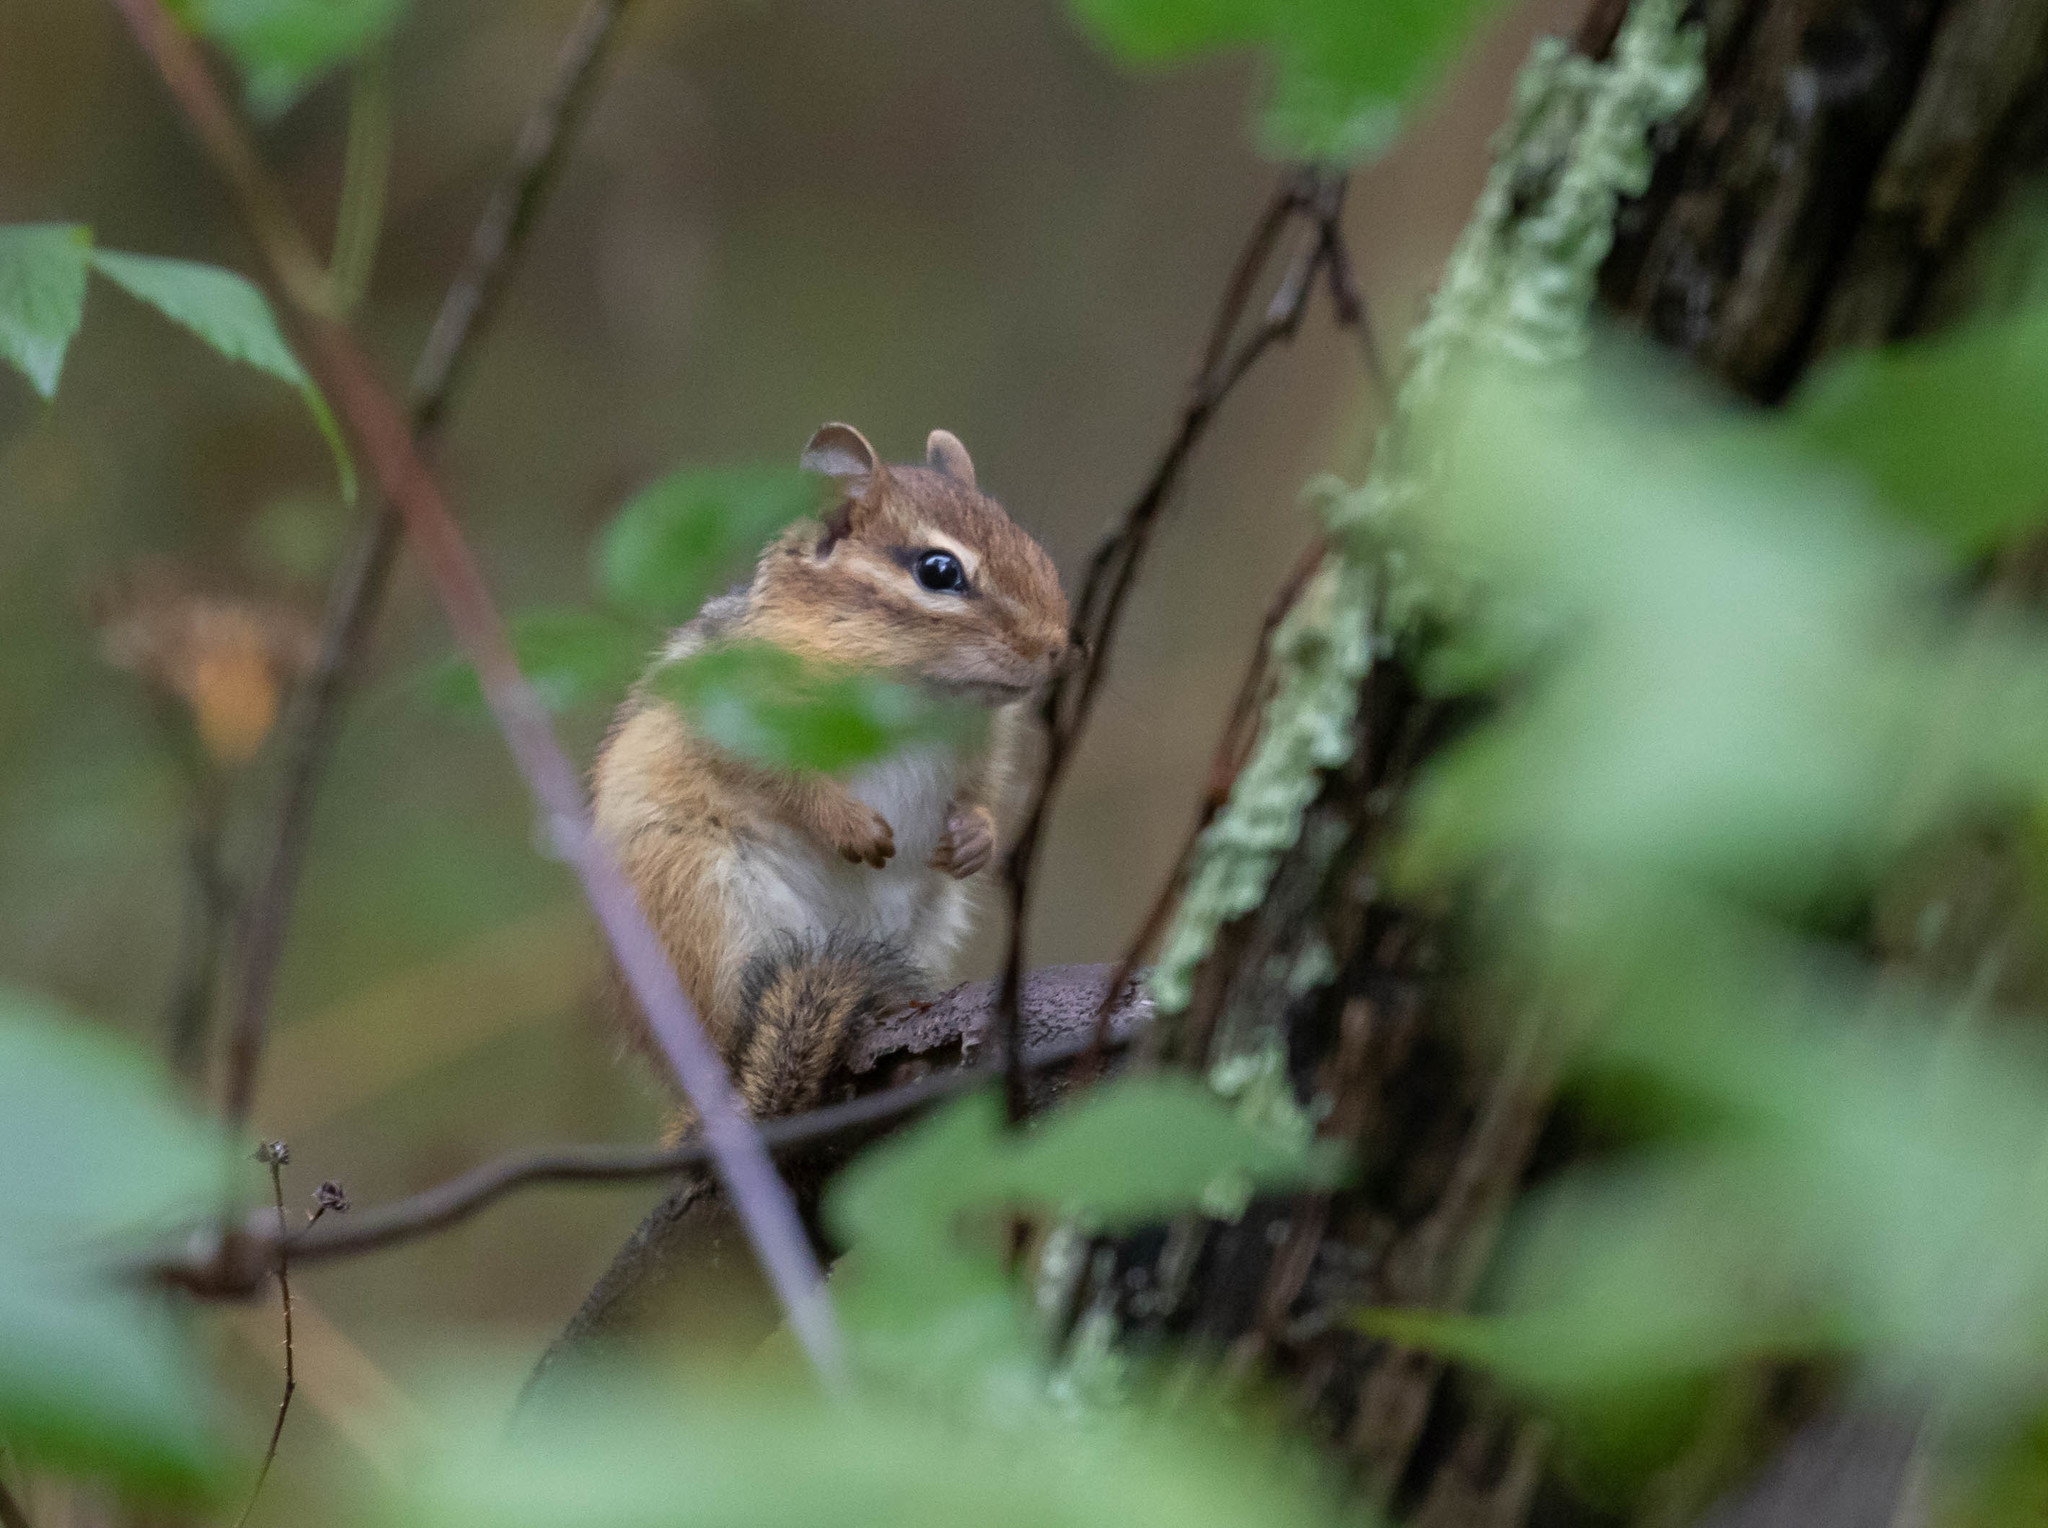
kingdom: Animalia
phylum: Chordata
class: Mammalia
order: Rodentia
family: Sciuridae
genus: Tamias
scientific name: Tamias striatus
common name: Eastern chipmunk
